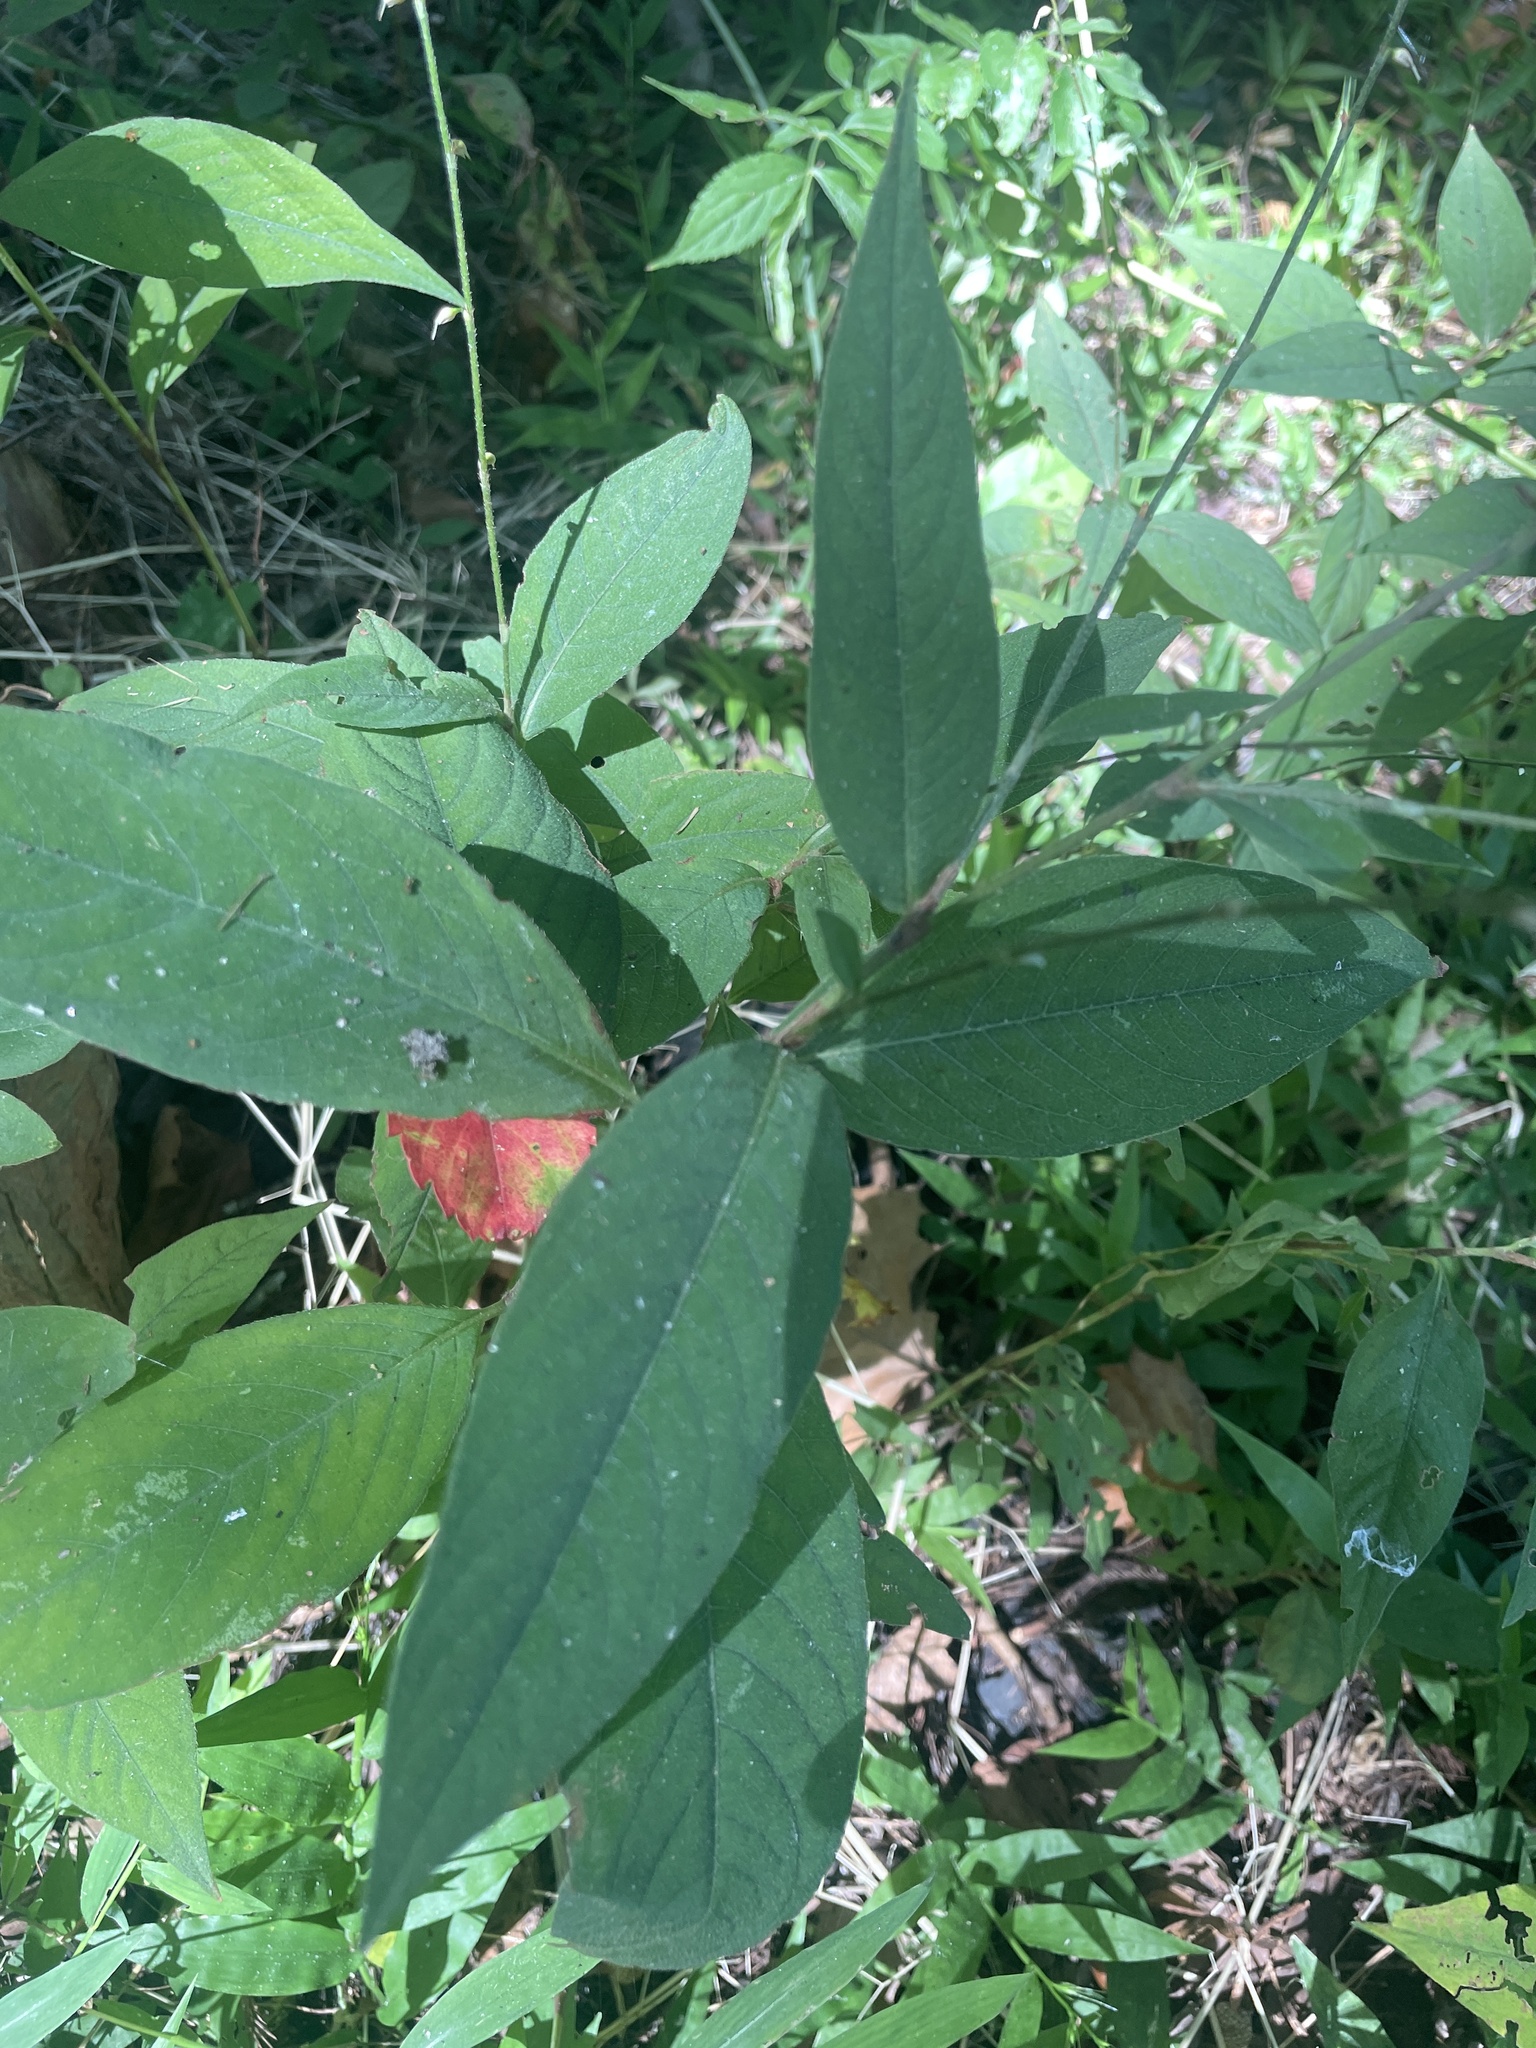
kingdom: Plantae
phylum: Tracheophyta
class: Magnoliopsida
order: Caryophyllales
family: Polygonaceae
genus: Persicaria
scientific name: Persicaria virginiana
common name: Jumpseed
